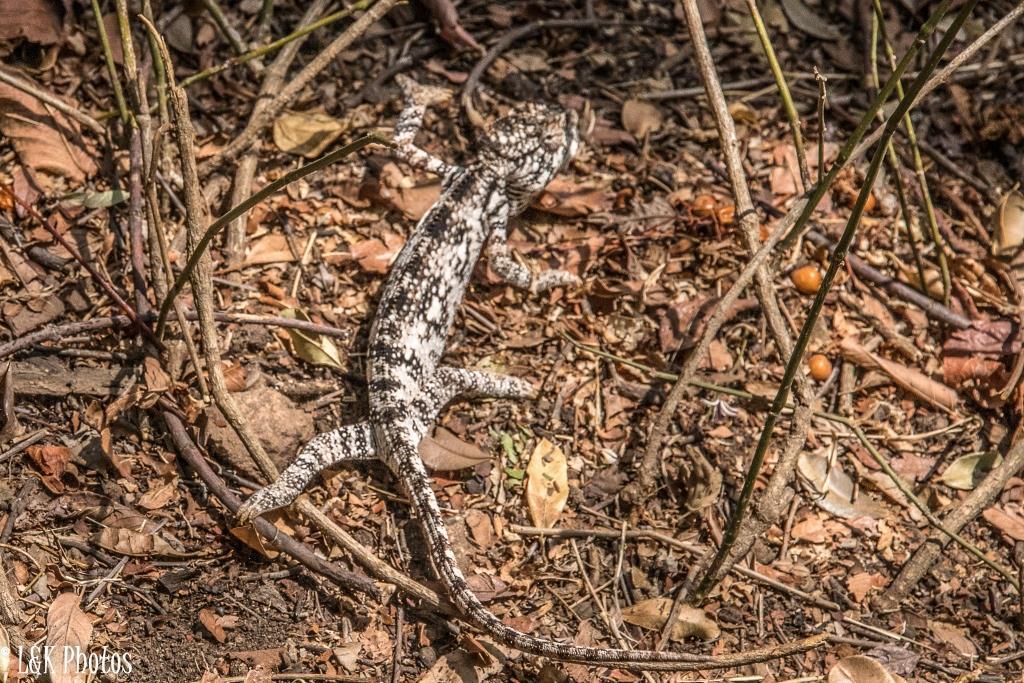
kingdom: Animalia
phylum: Chordata
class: Squamata
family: Chamaeleonidae
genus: Furcifer
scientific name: Furcifer oustaleti
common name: Oustalet's chameleon
